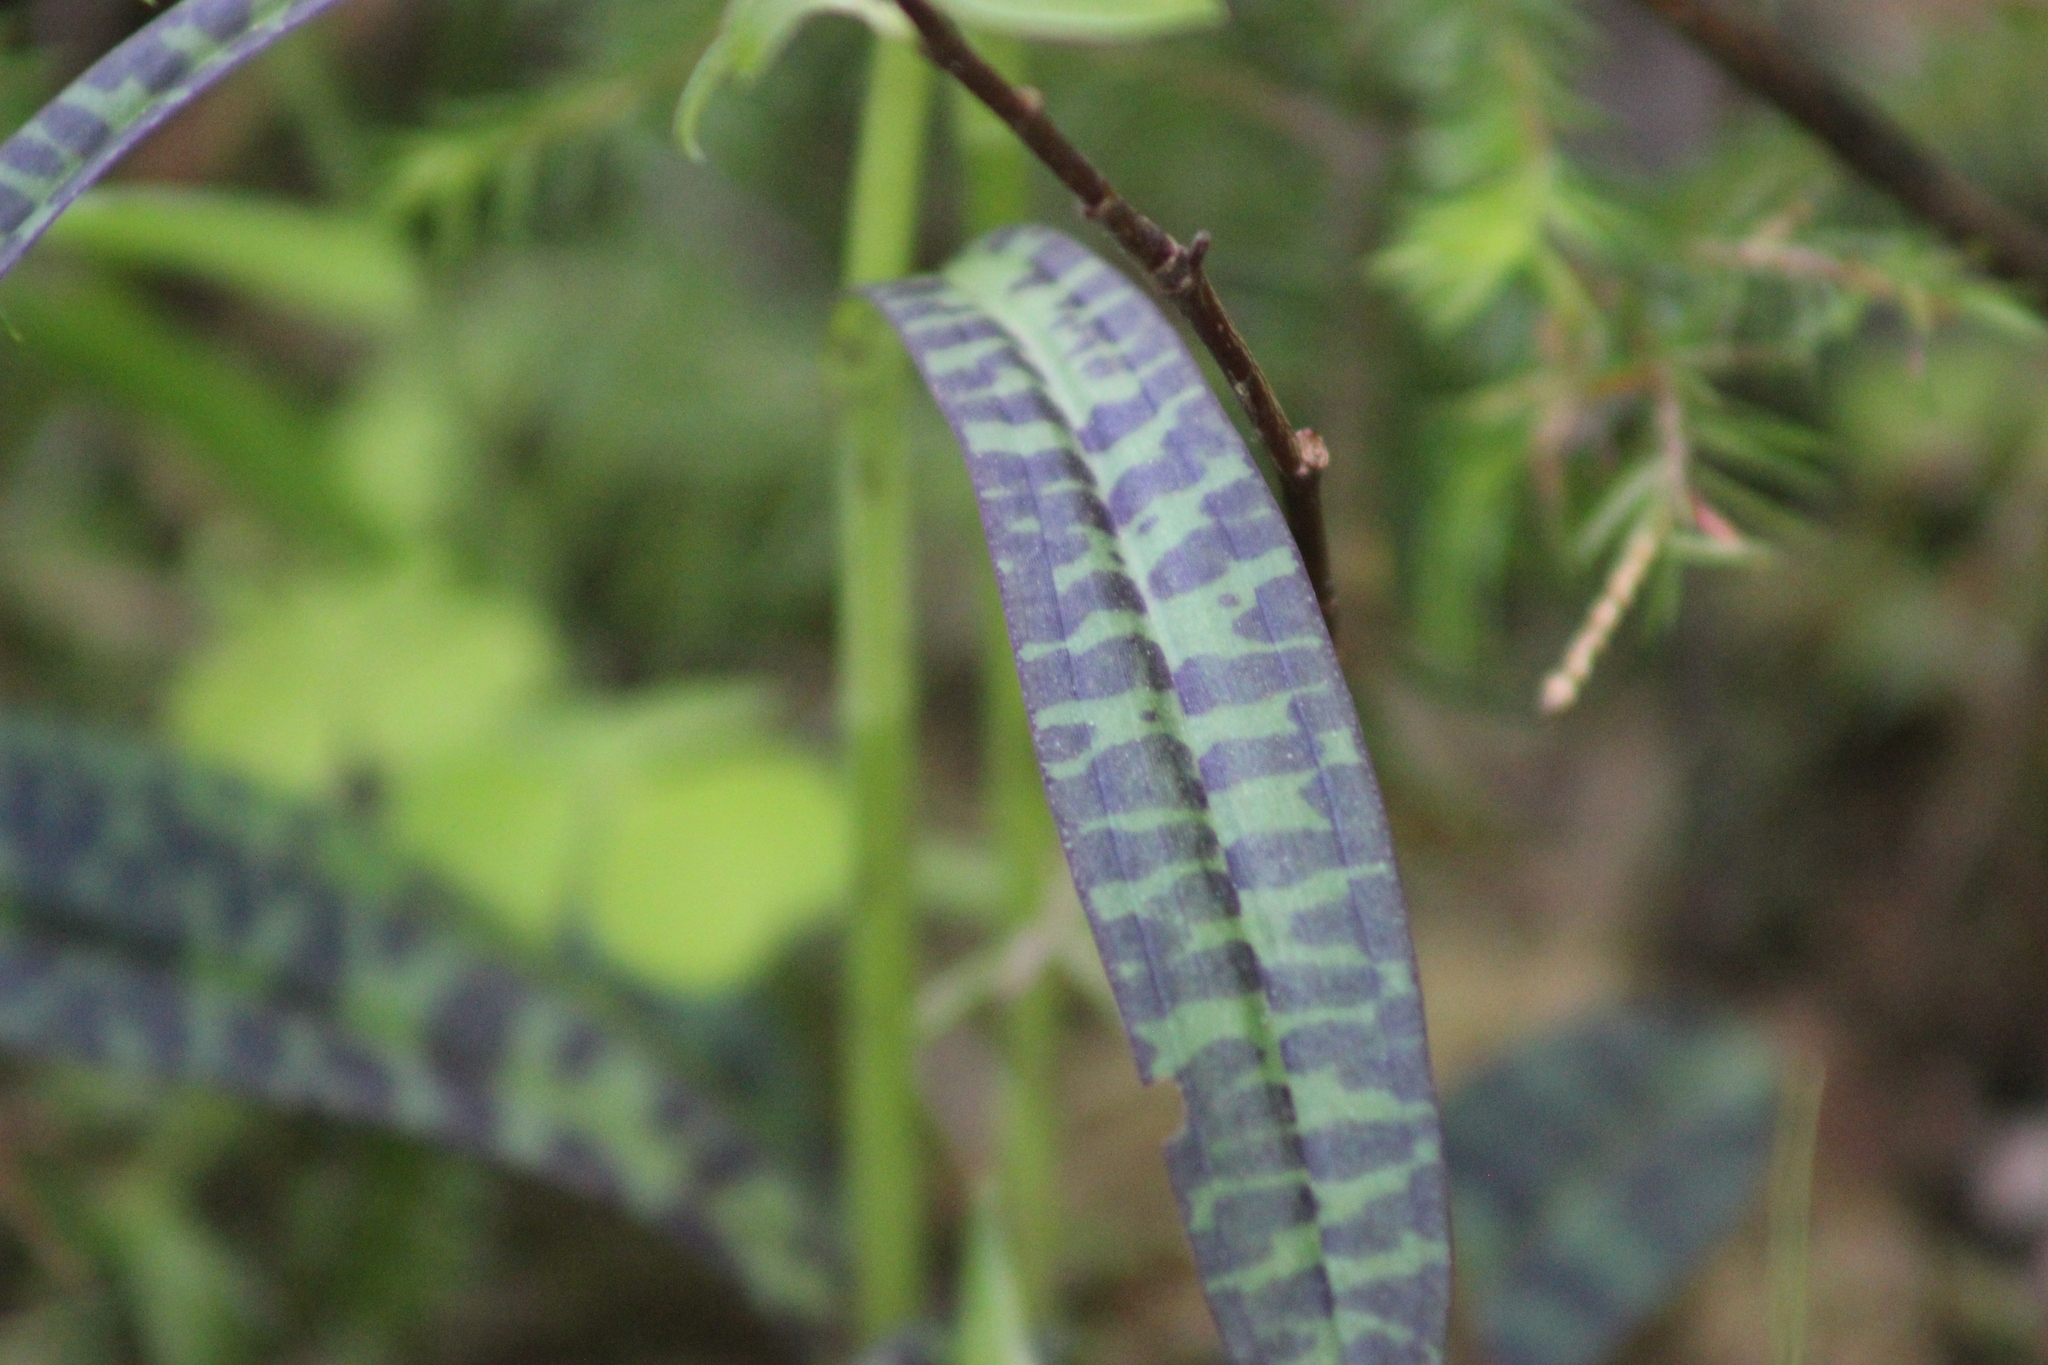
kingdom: Plantae
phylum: Tracheophyta
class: Liliopsida
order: Asparagales
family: Orchidaceae
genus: Dactylorhiza
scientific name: Dactylorhiza maculata
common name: Heath spotted-orchid
